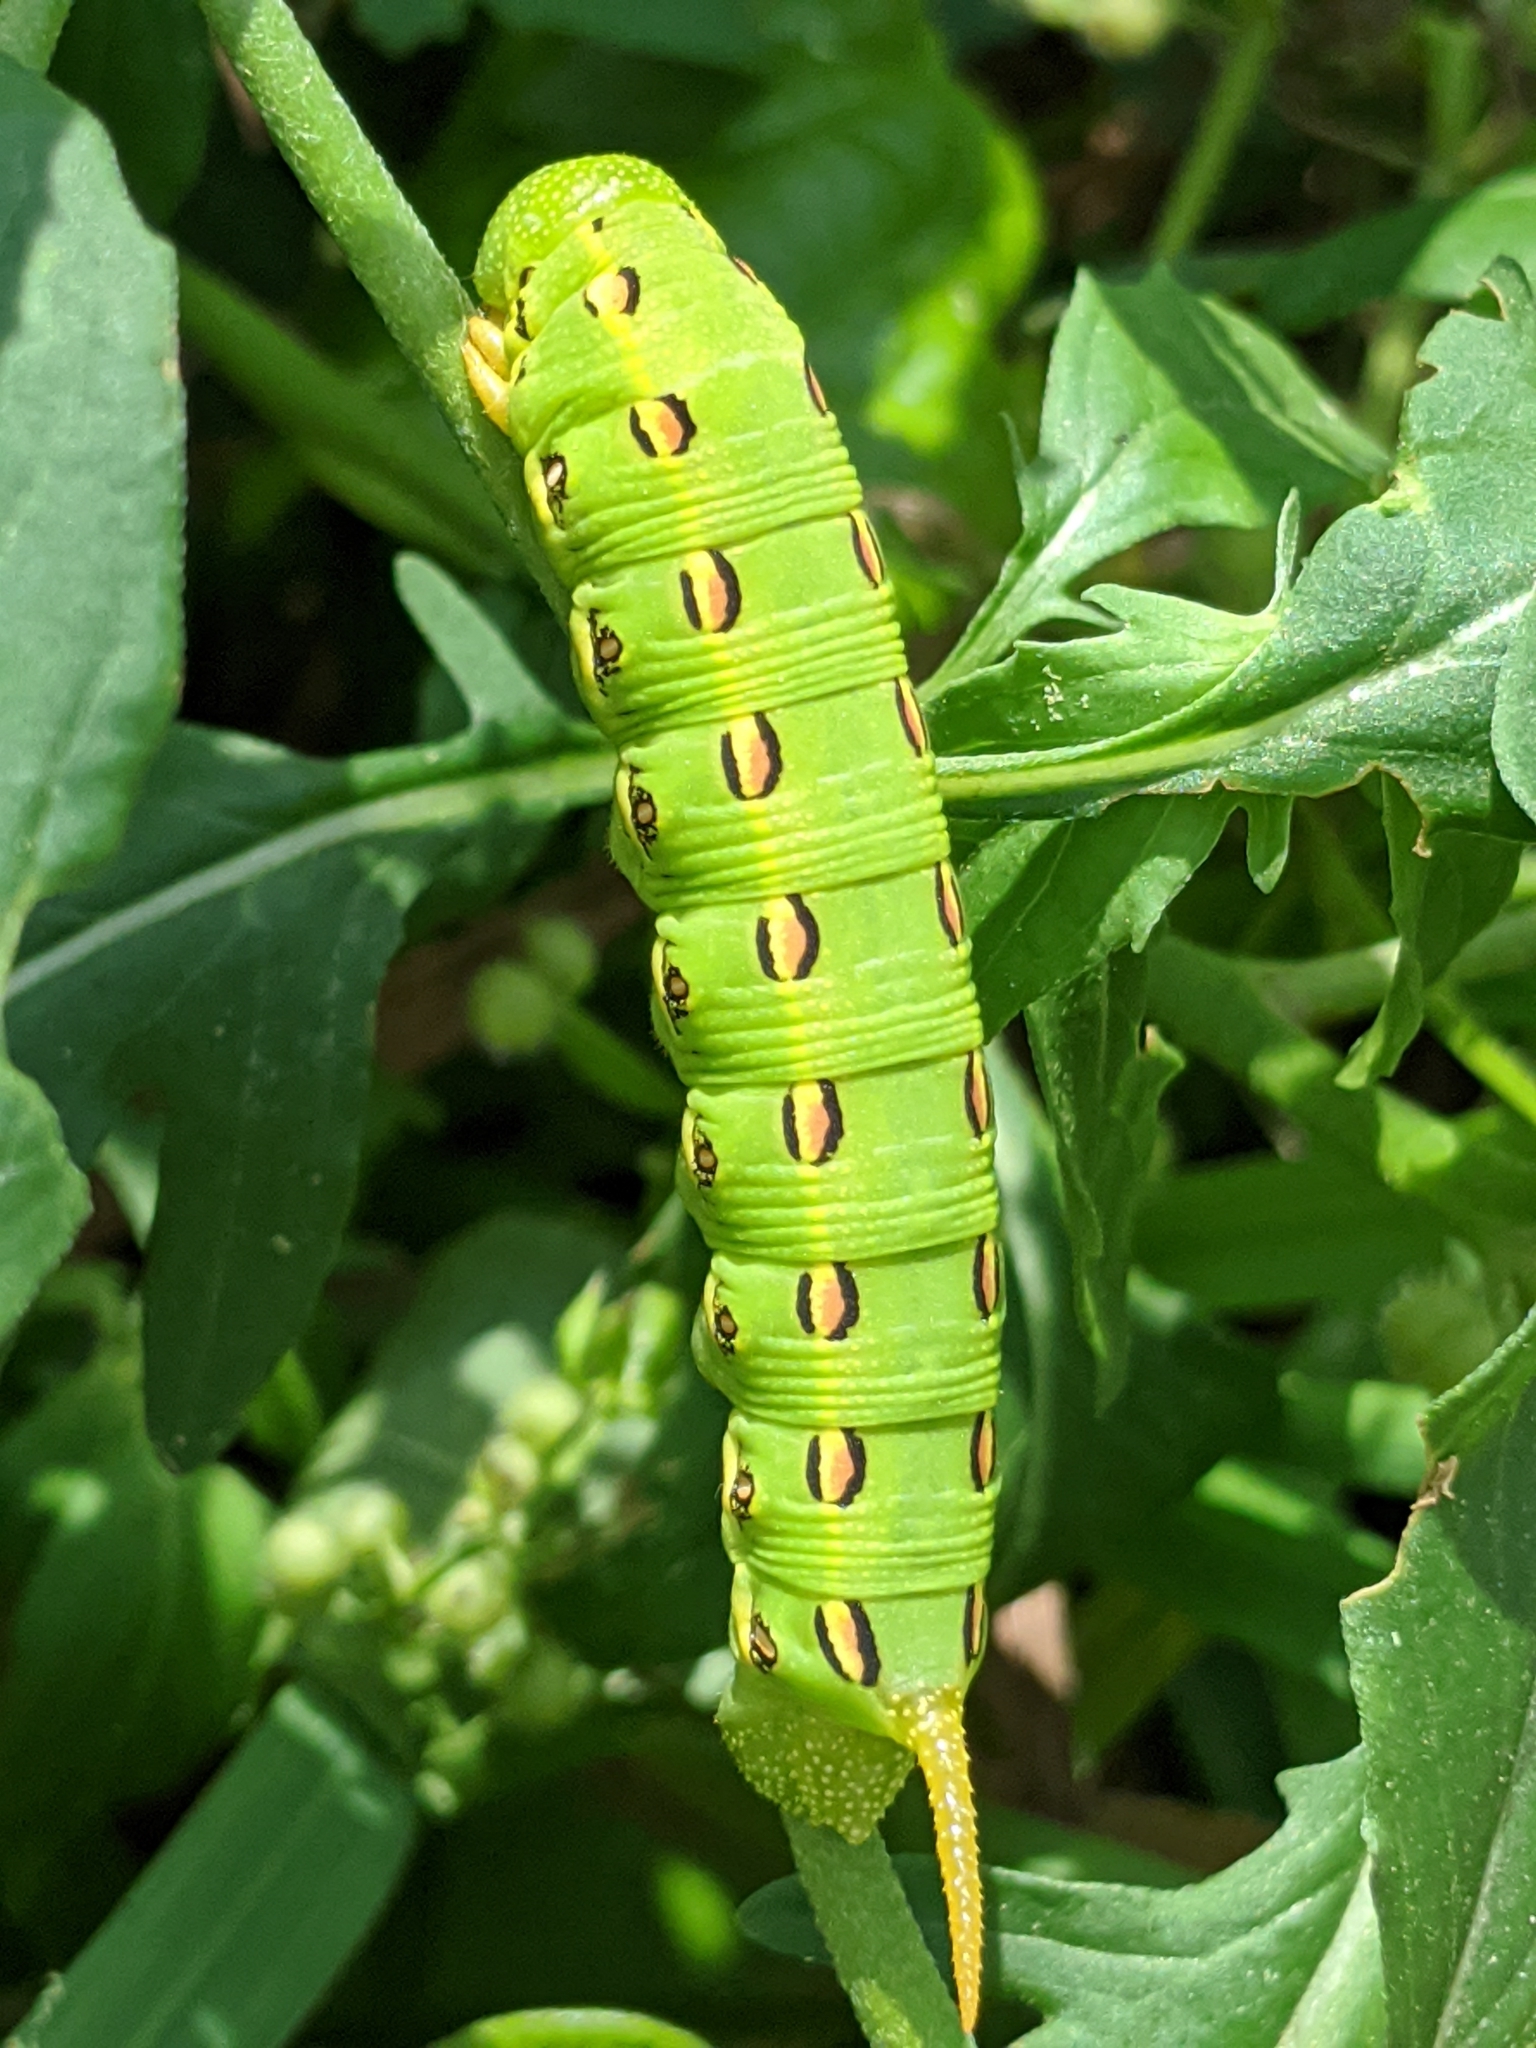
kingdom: Animalia
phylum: Arthropoda
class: Insecta
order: Lepidoptera
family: Sphingidae
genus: Hyles
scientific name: Hyles lineata
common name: White-lined sphinx
